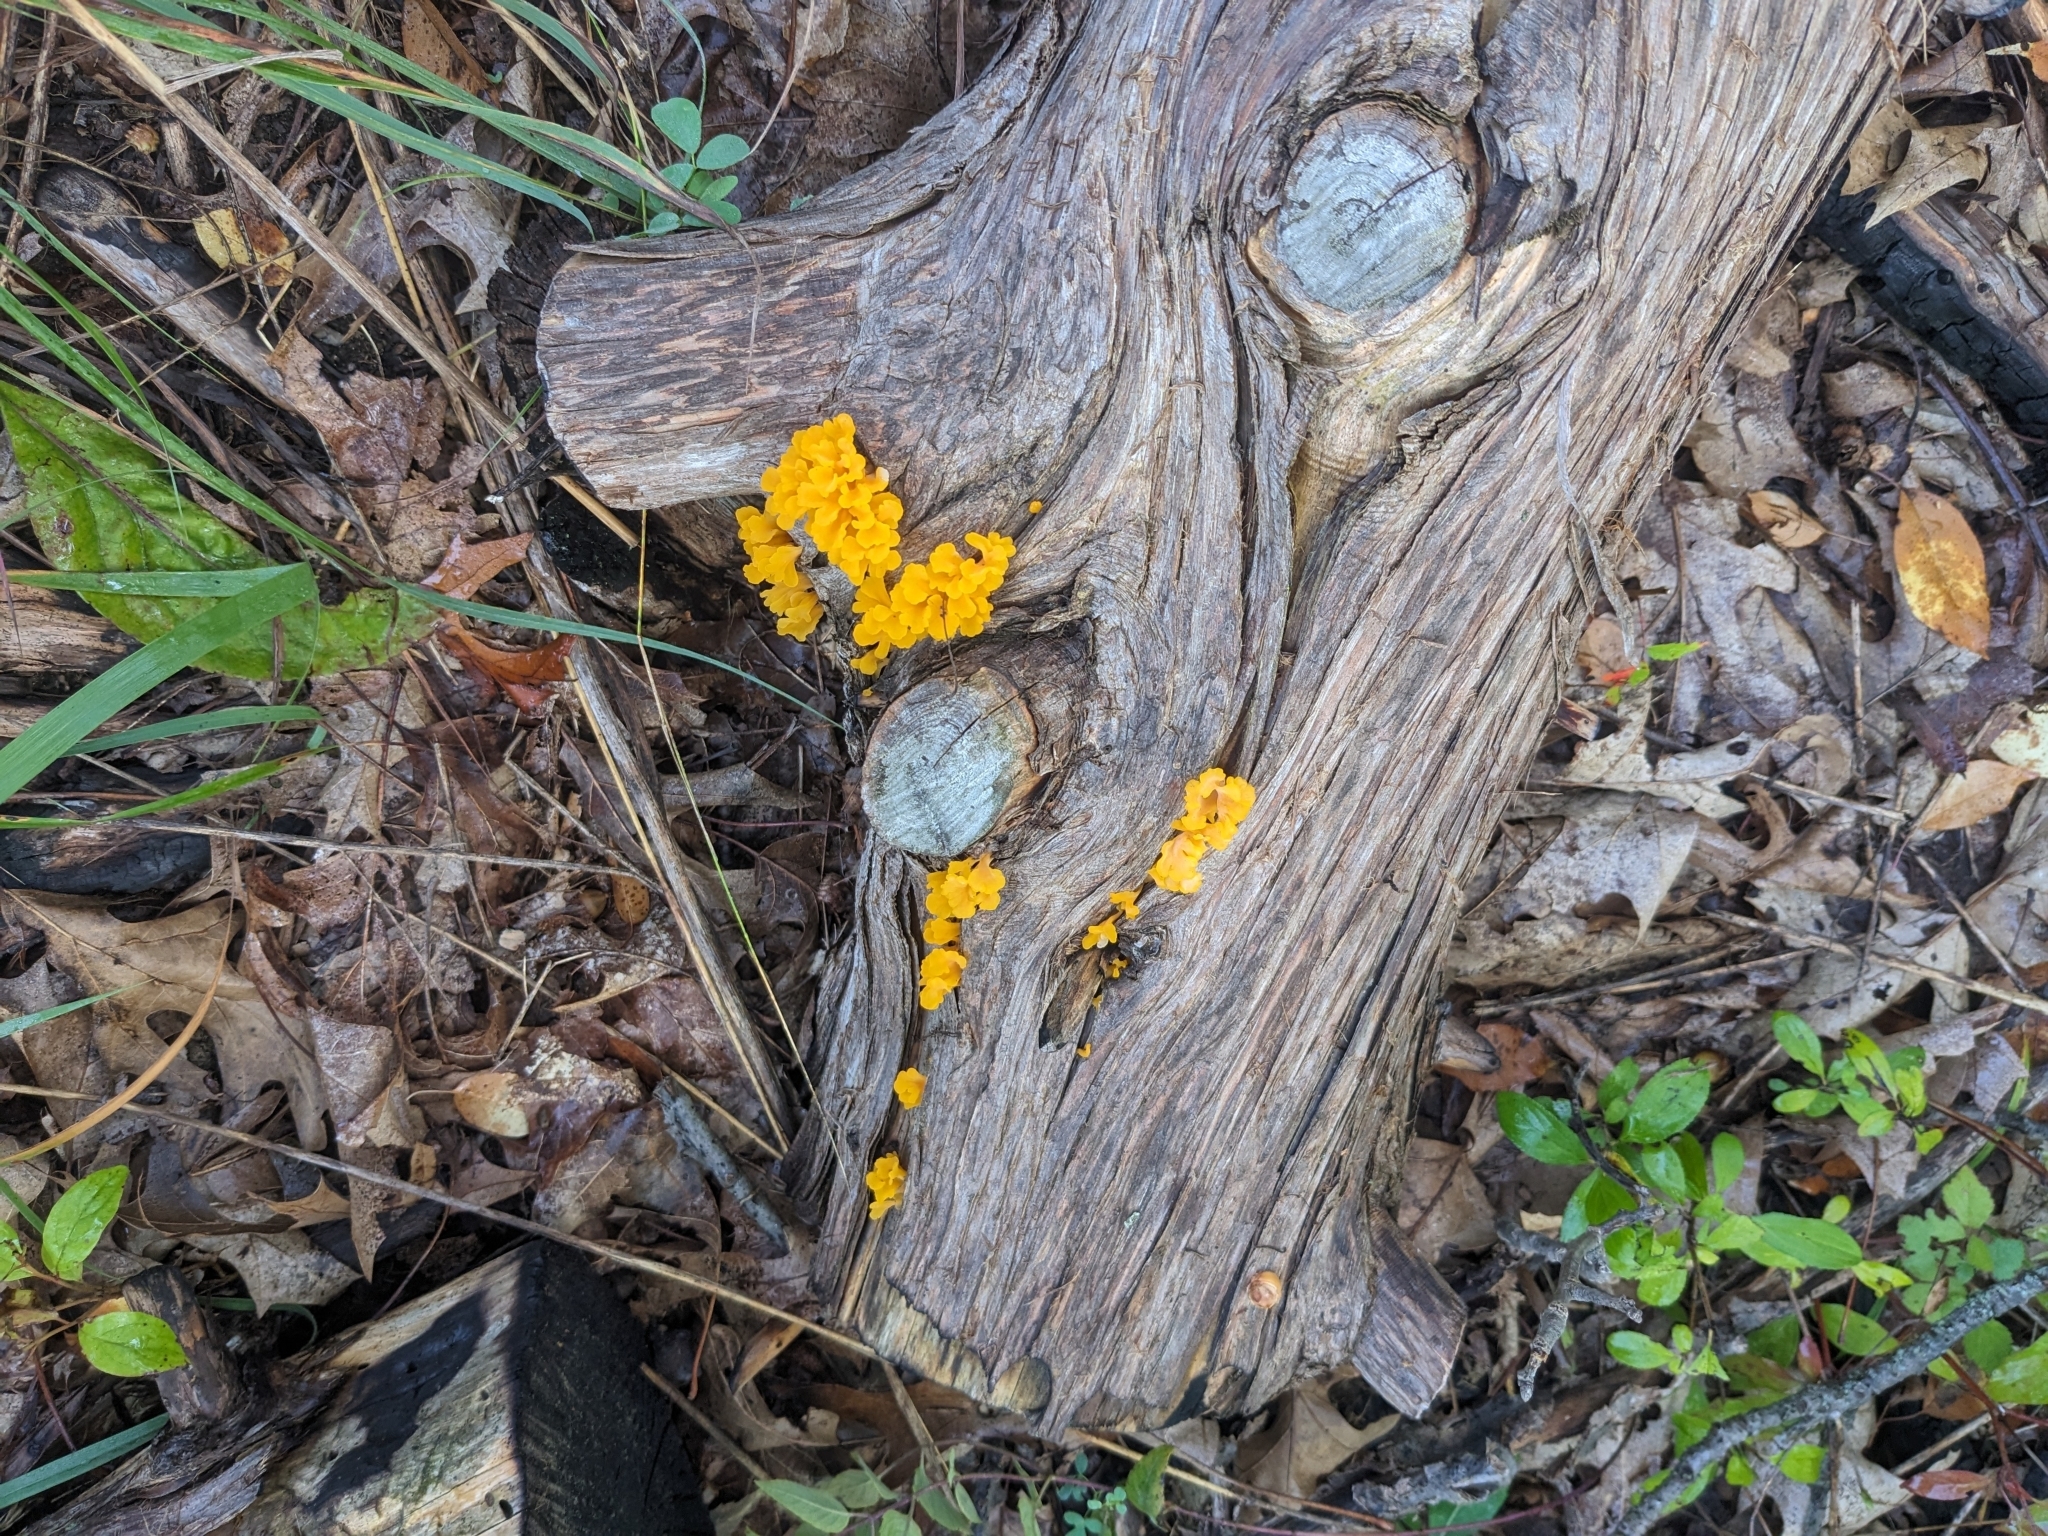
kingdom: Fungi
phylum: Basidiomycota
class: Dacrymycetes
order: Dacrymycetales
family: Dacrymycetaceae
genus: Dacrymyces
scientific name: Dacrymyces spathularius
